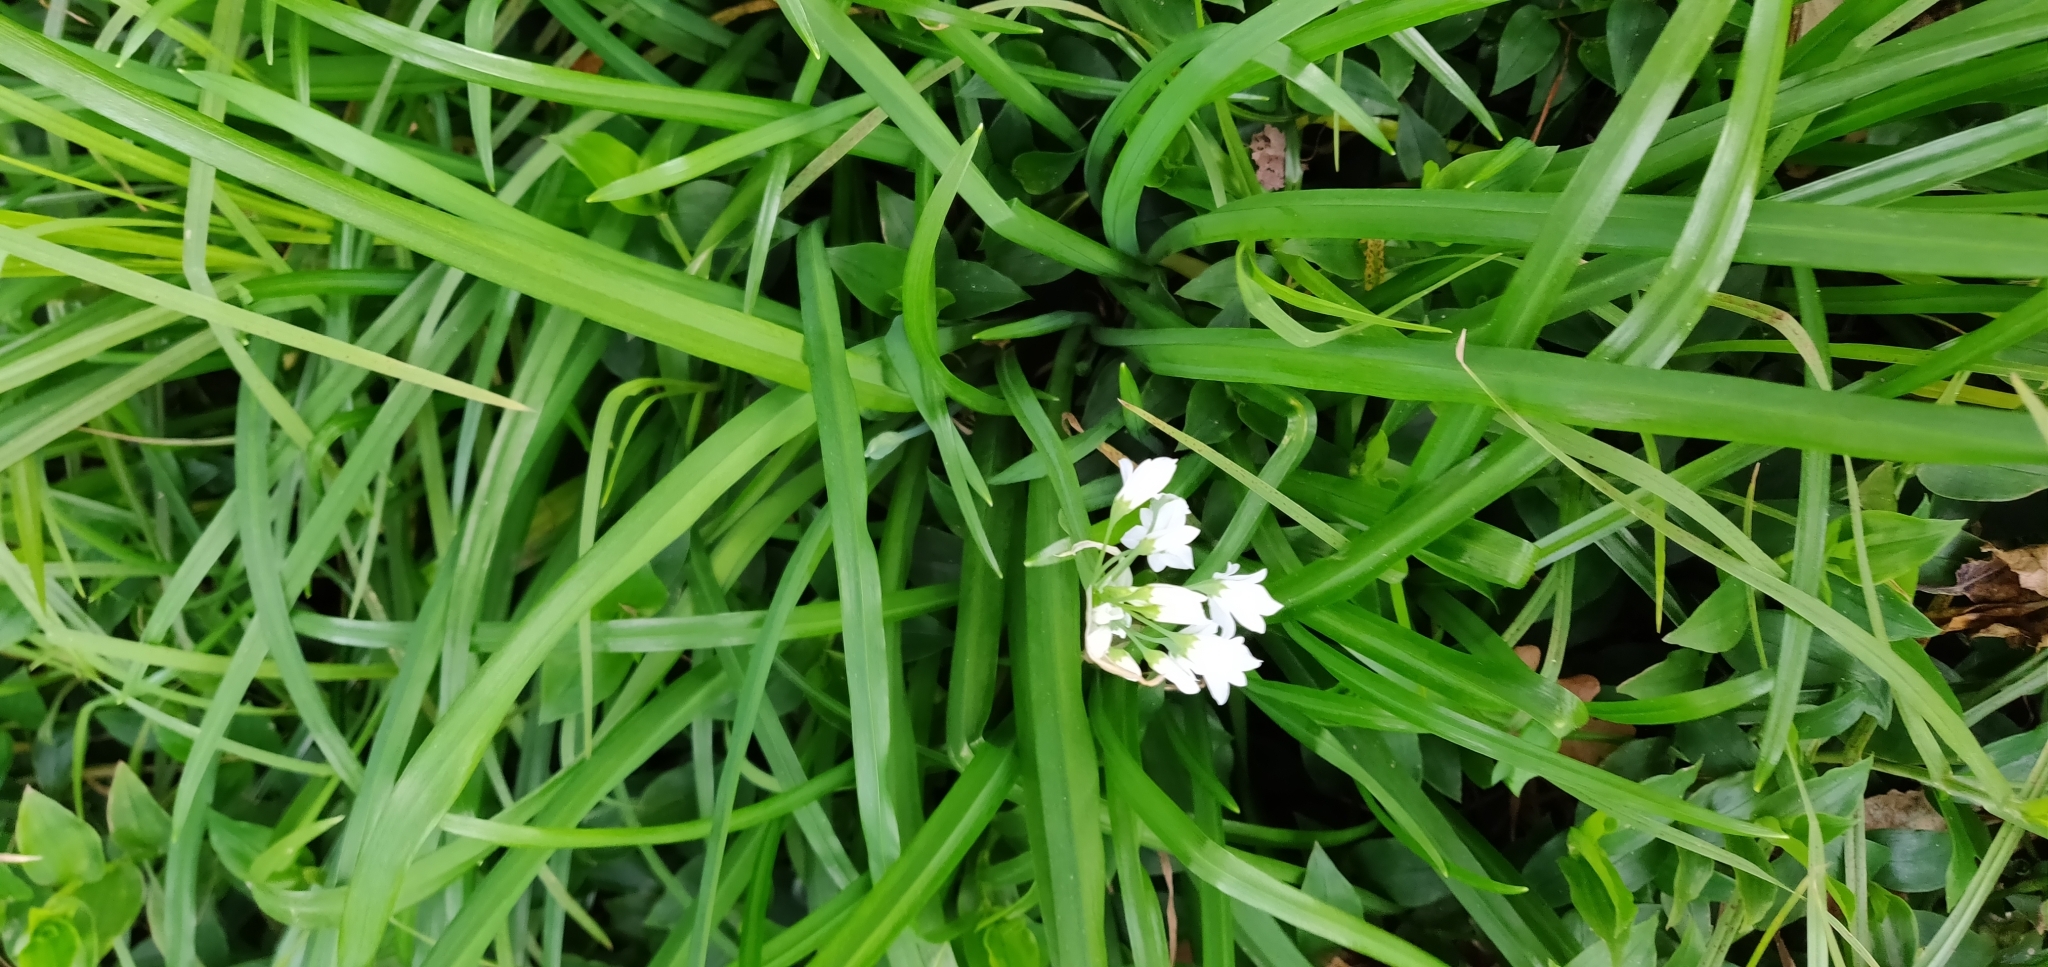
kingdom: Plantae
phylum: Tracheophyta
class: Liliopsida
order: Asparagales
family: Amaryllidaceae
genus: Allium
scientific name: Allium triquetrum
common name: Three-cornered garlic
